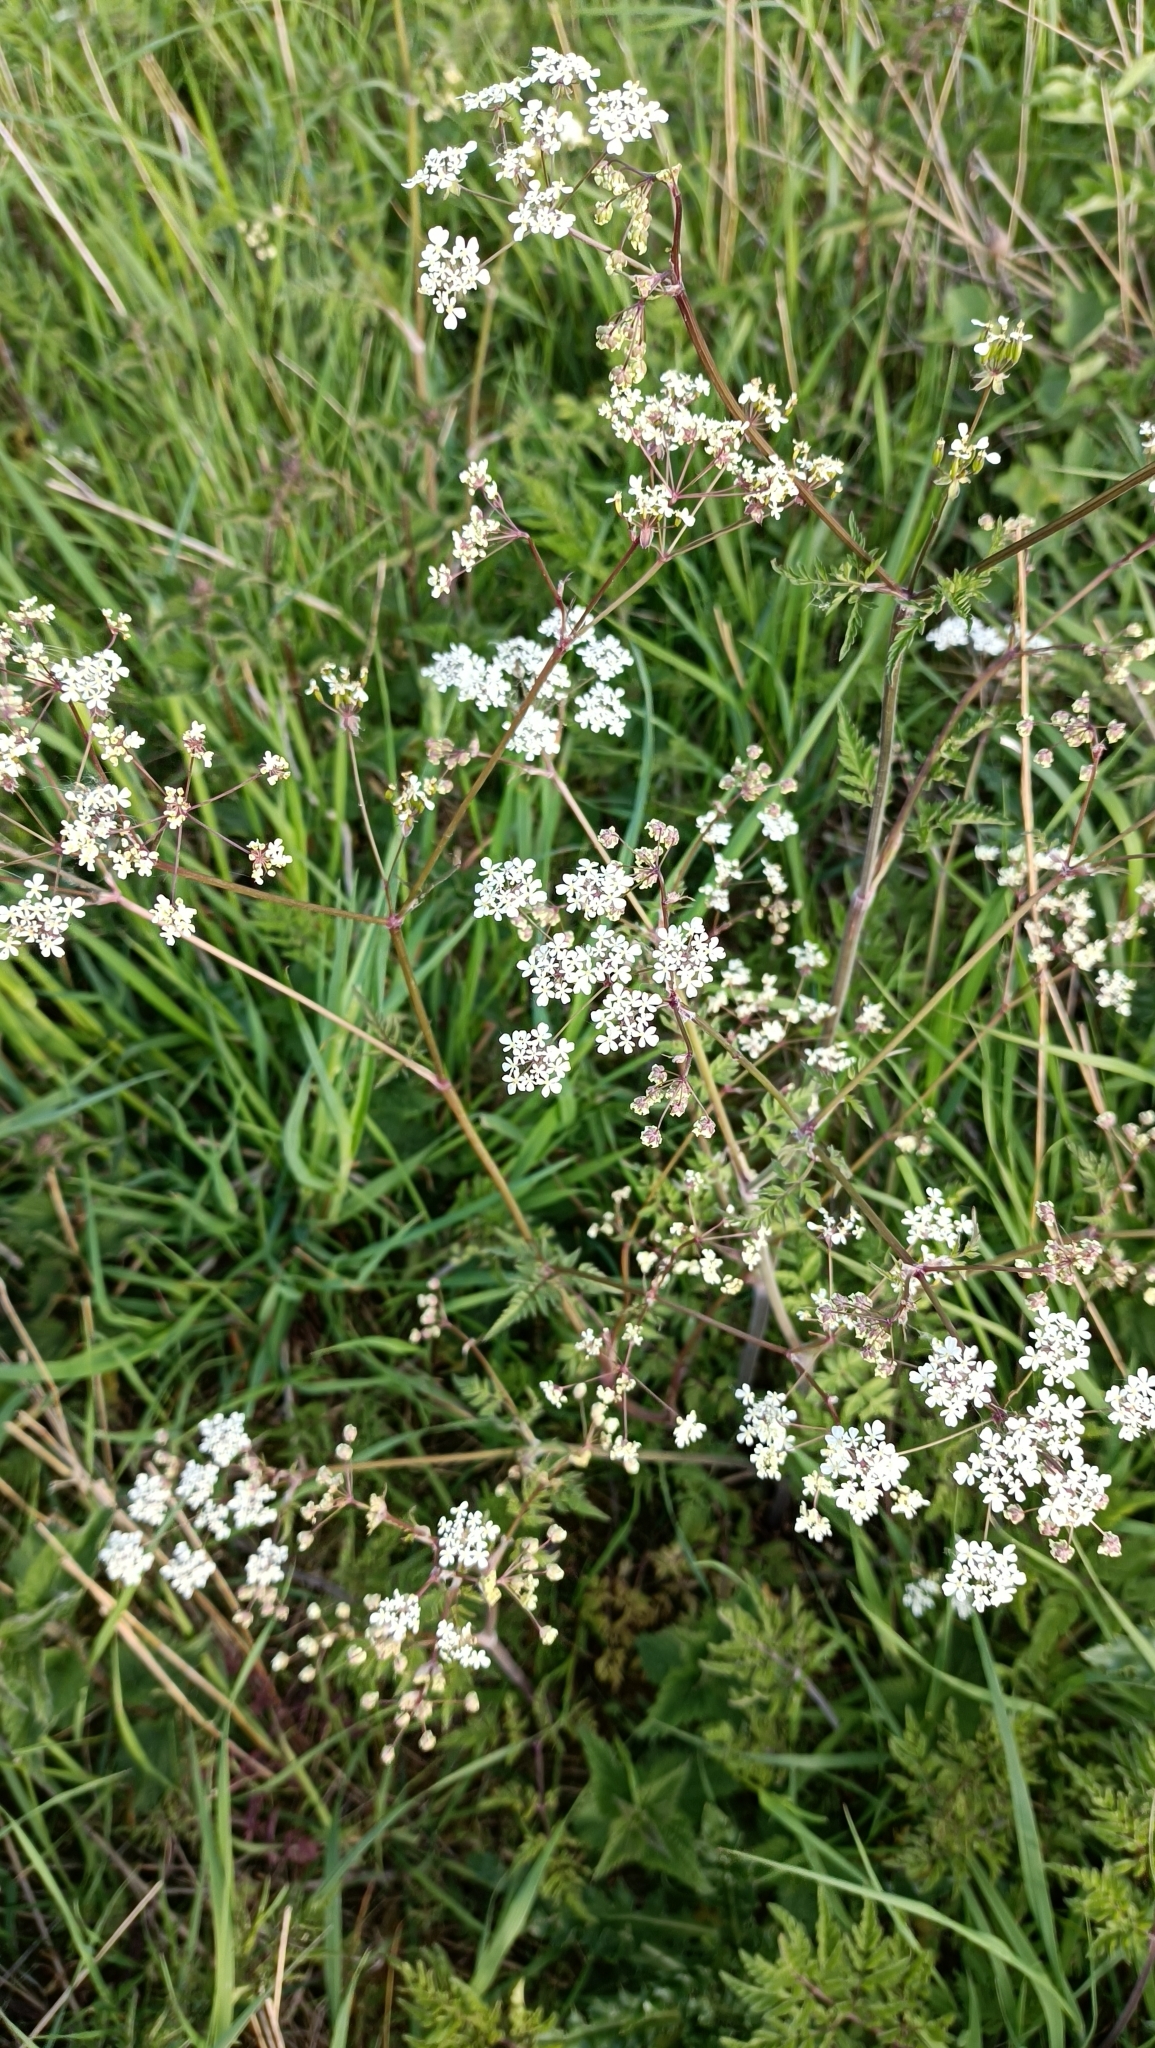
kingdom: Plantae
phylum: Tracheophyta
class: Magnoliopsida
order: Apiales
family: Apiaceae
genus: Anthriscus
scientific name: Anthriscus sylvestris
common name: Cow parsley
